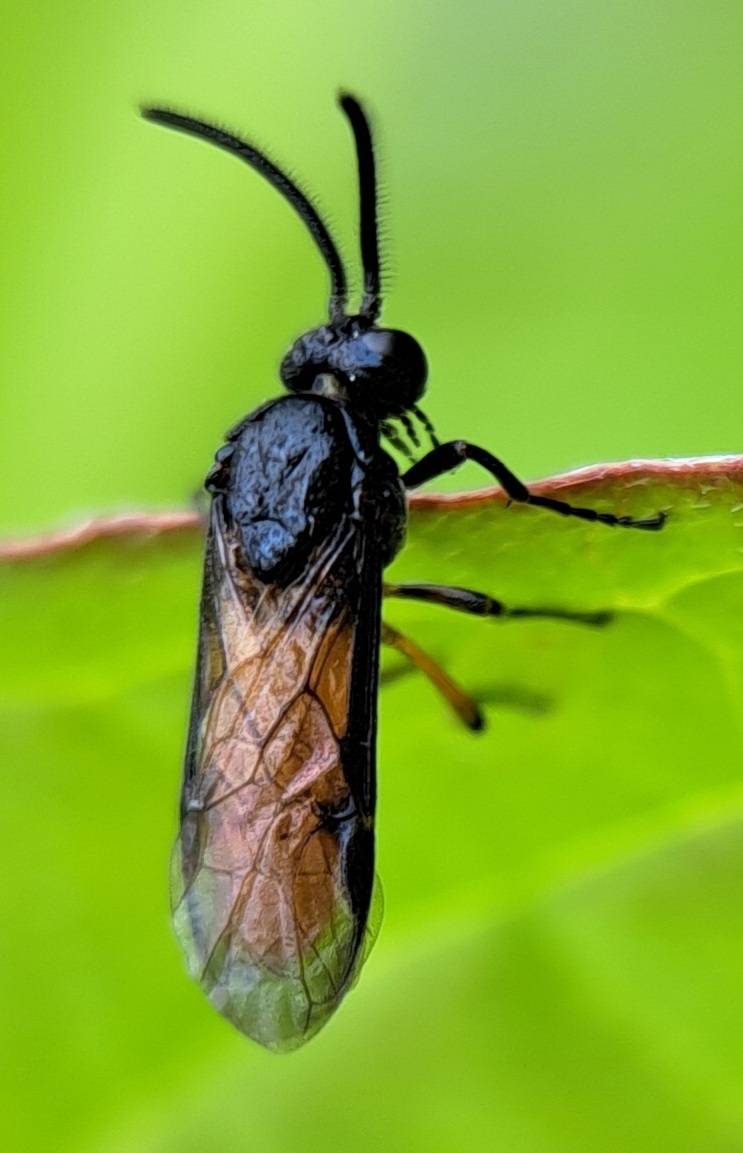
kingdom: Animalia
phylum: Arthropoda
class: Insecta
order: Hymenoptera
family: Argidae
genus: Arge
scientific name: Arge pagana
